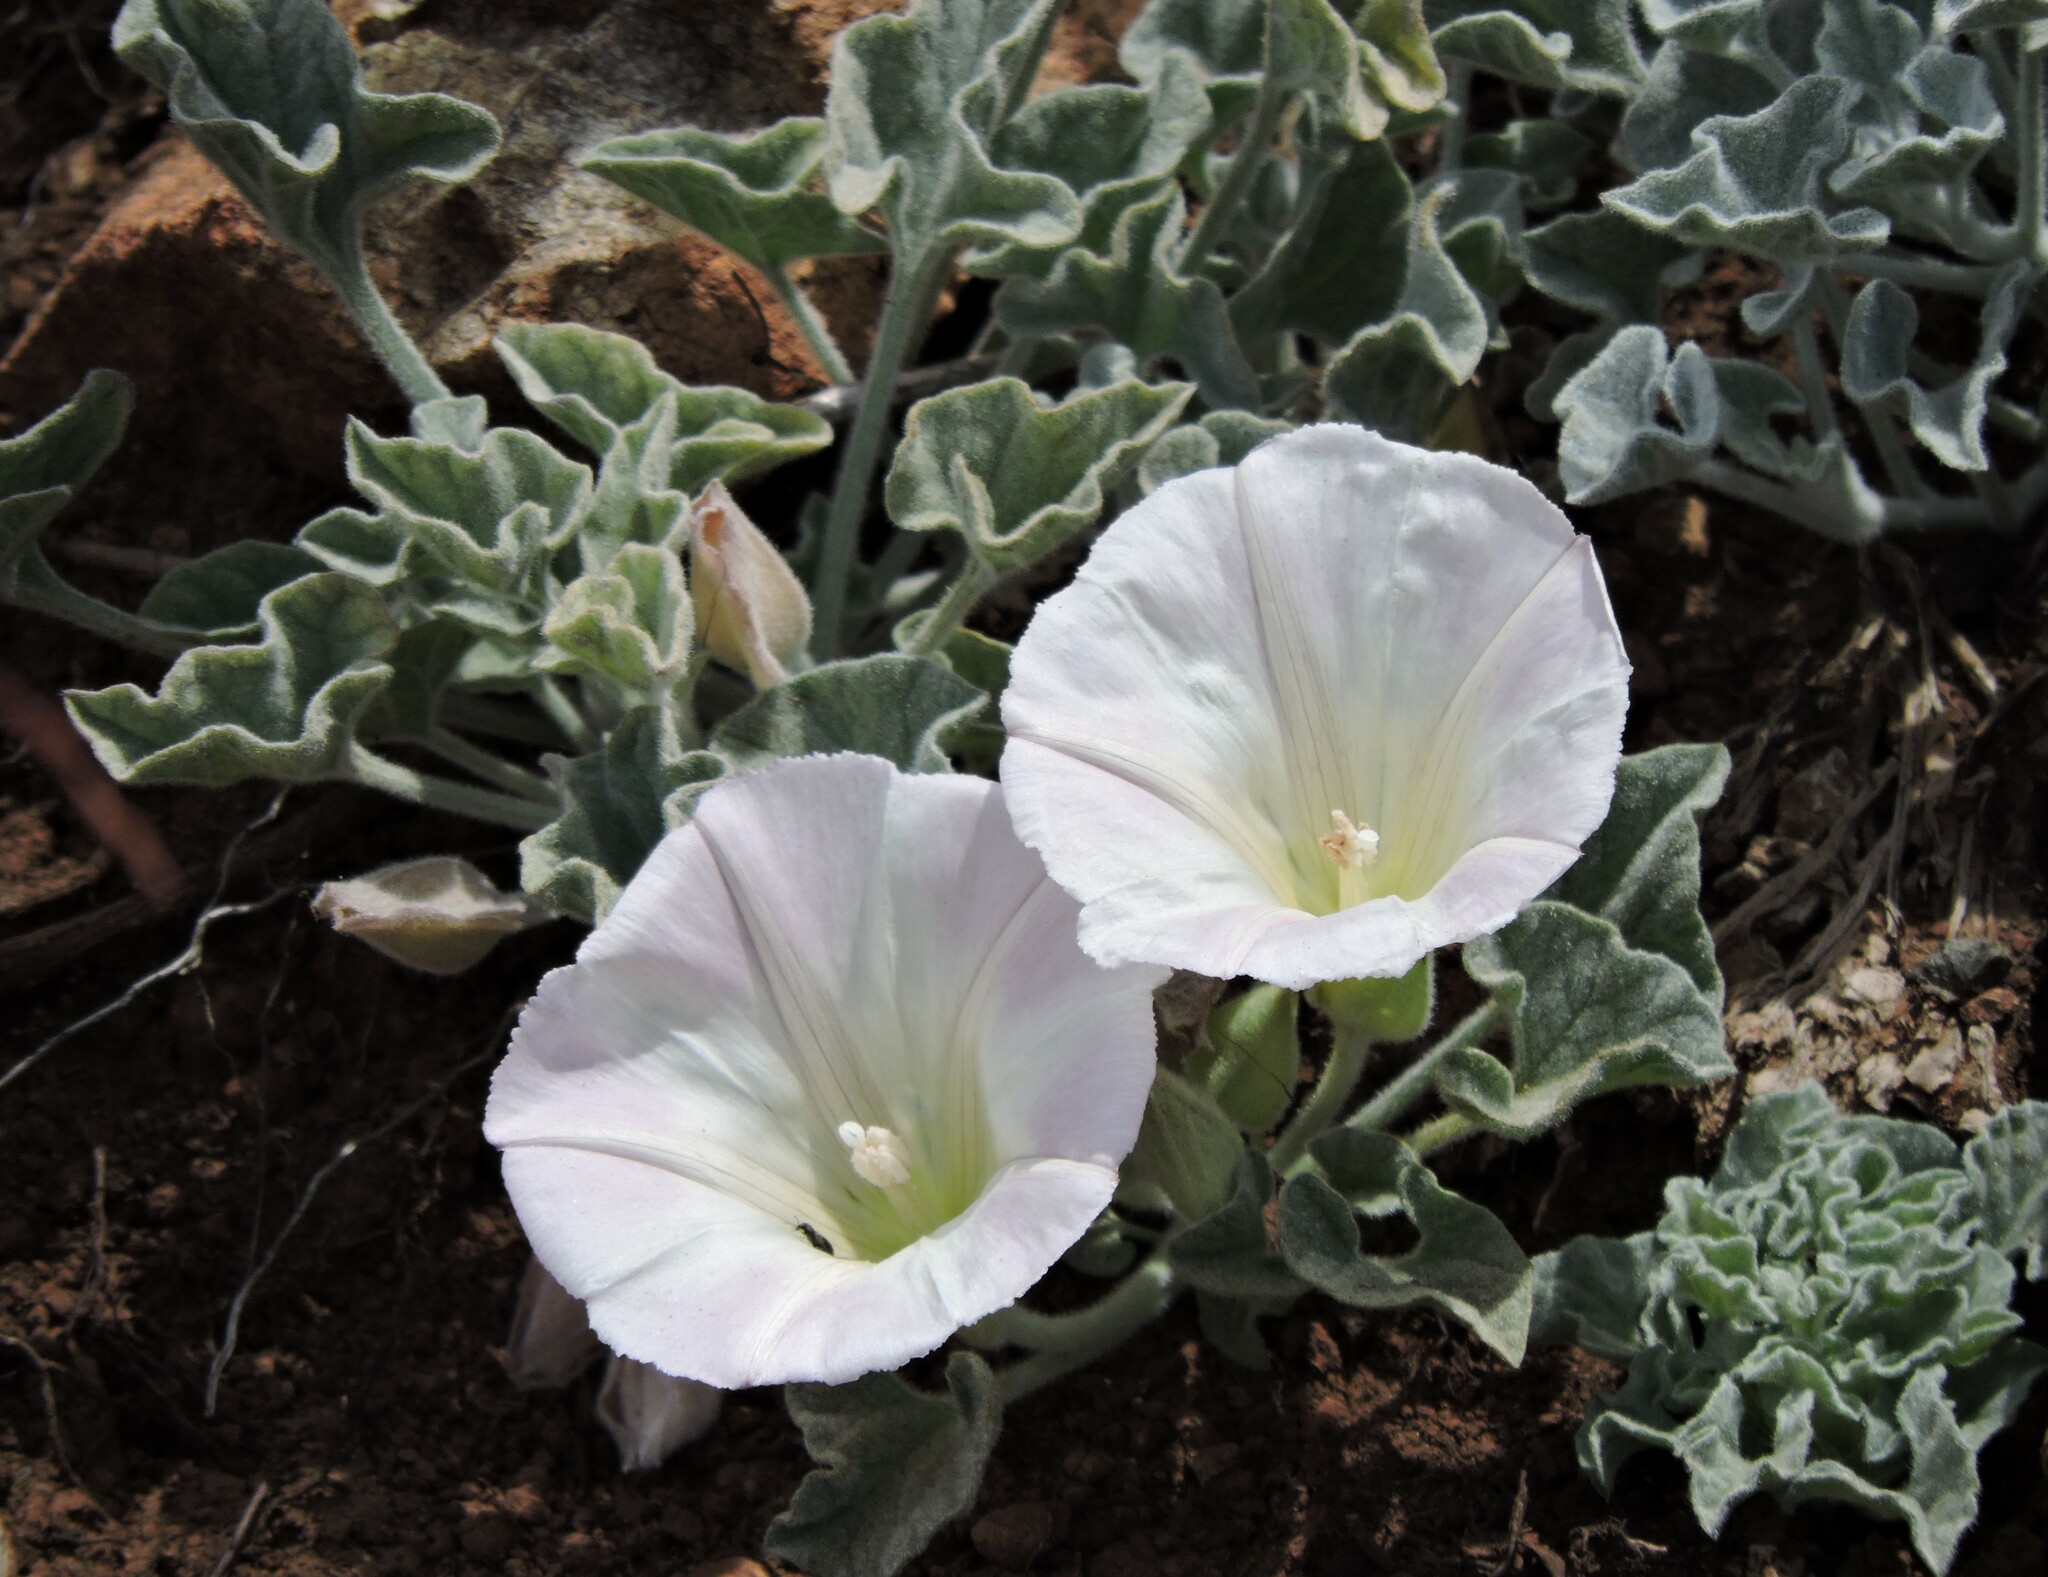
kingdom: Plantae
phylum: Tracheophyta
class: Magnoliopsida
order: Solanales
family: Convolvulaceae
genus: Calystegia
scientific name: Calystegia collina
